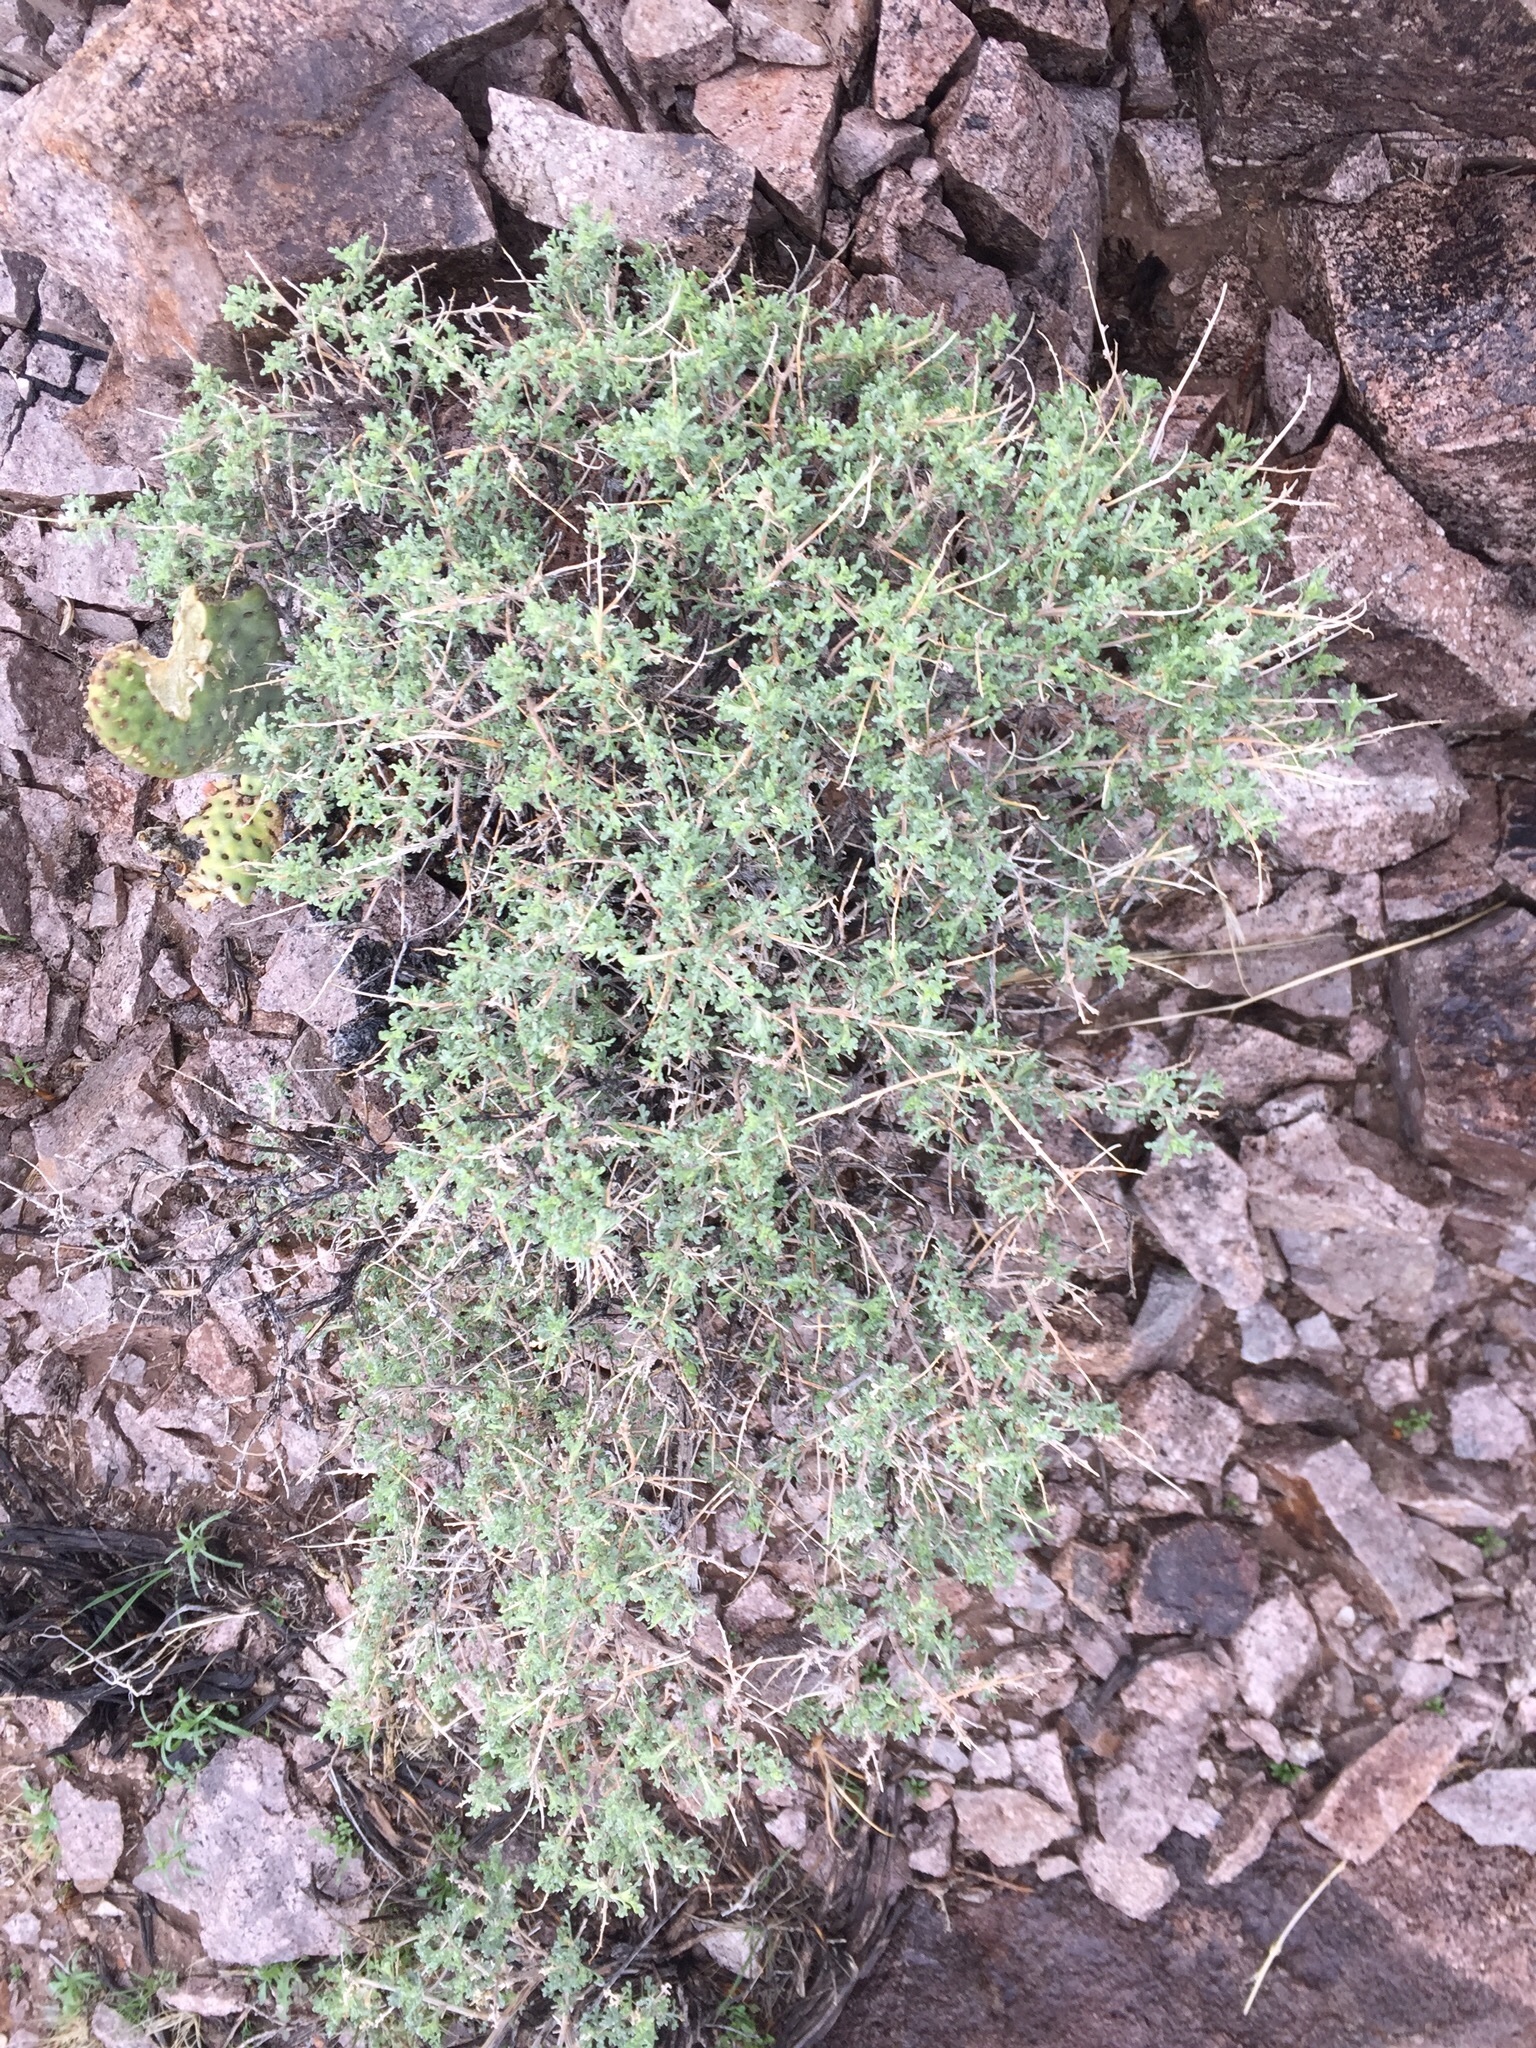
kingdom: Plantae
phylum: Tracheophyta
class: Magnoliopsida
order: Asterales
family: Asteraceae
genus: Ambrosia
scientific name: Ambrosia dumosa
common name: Bur-sage
